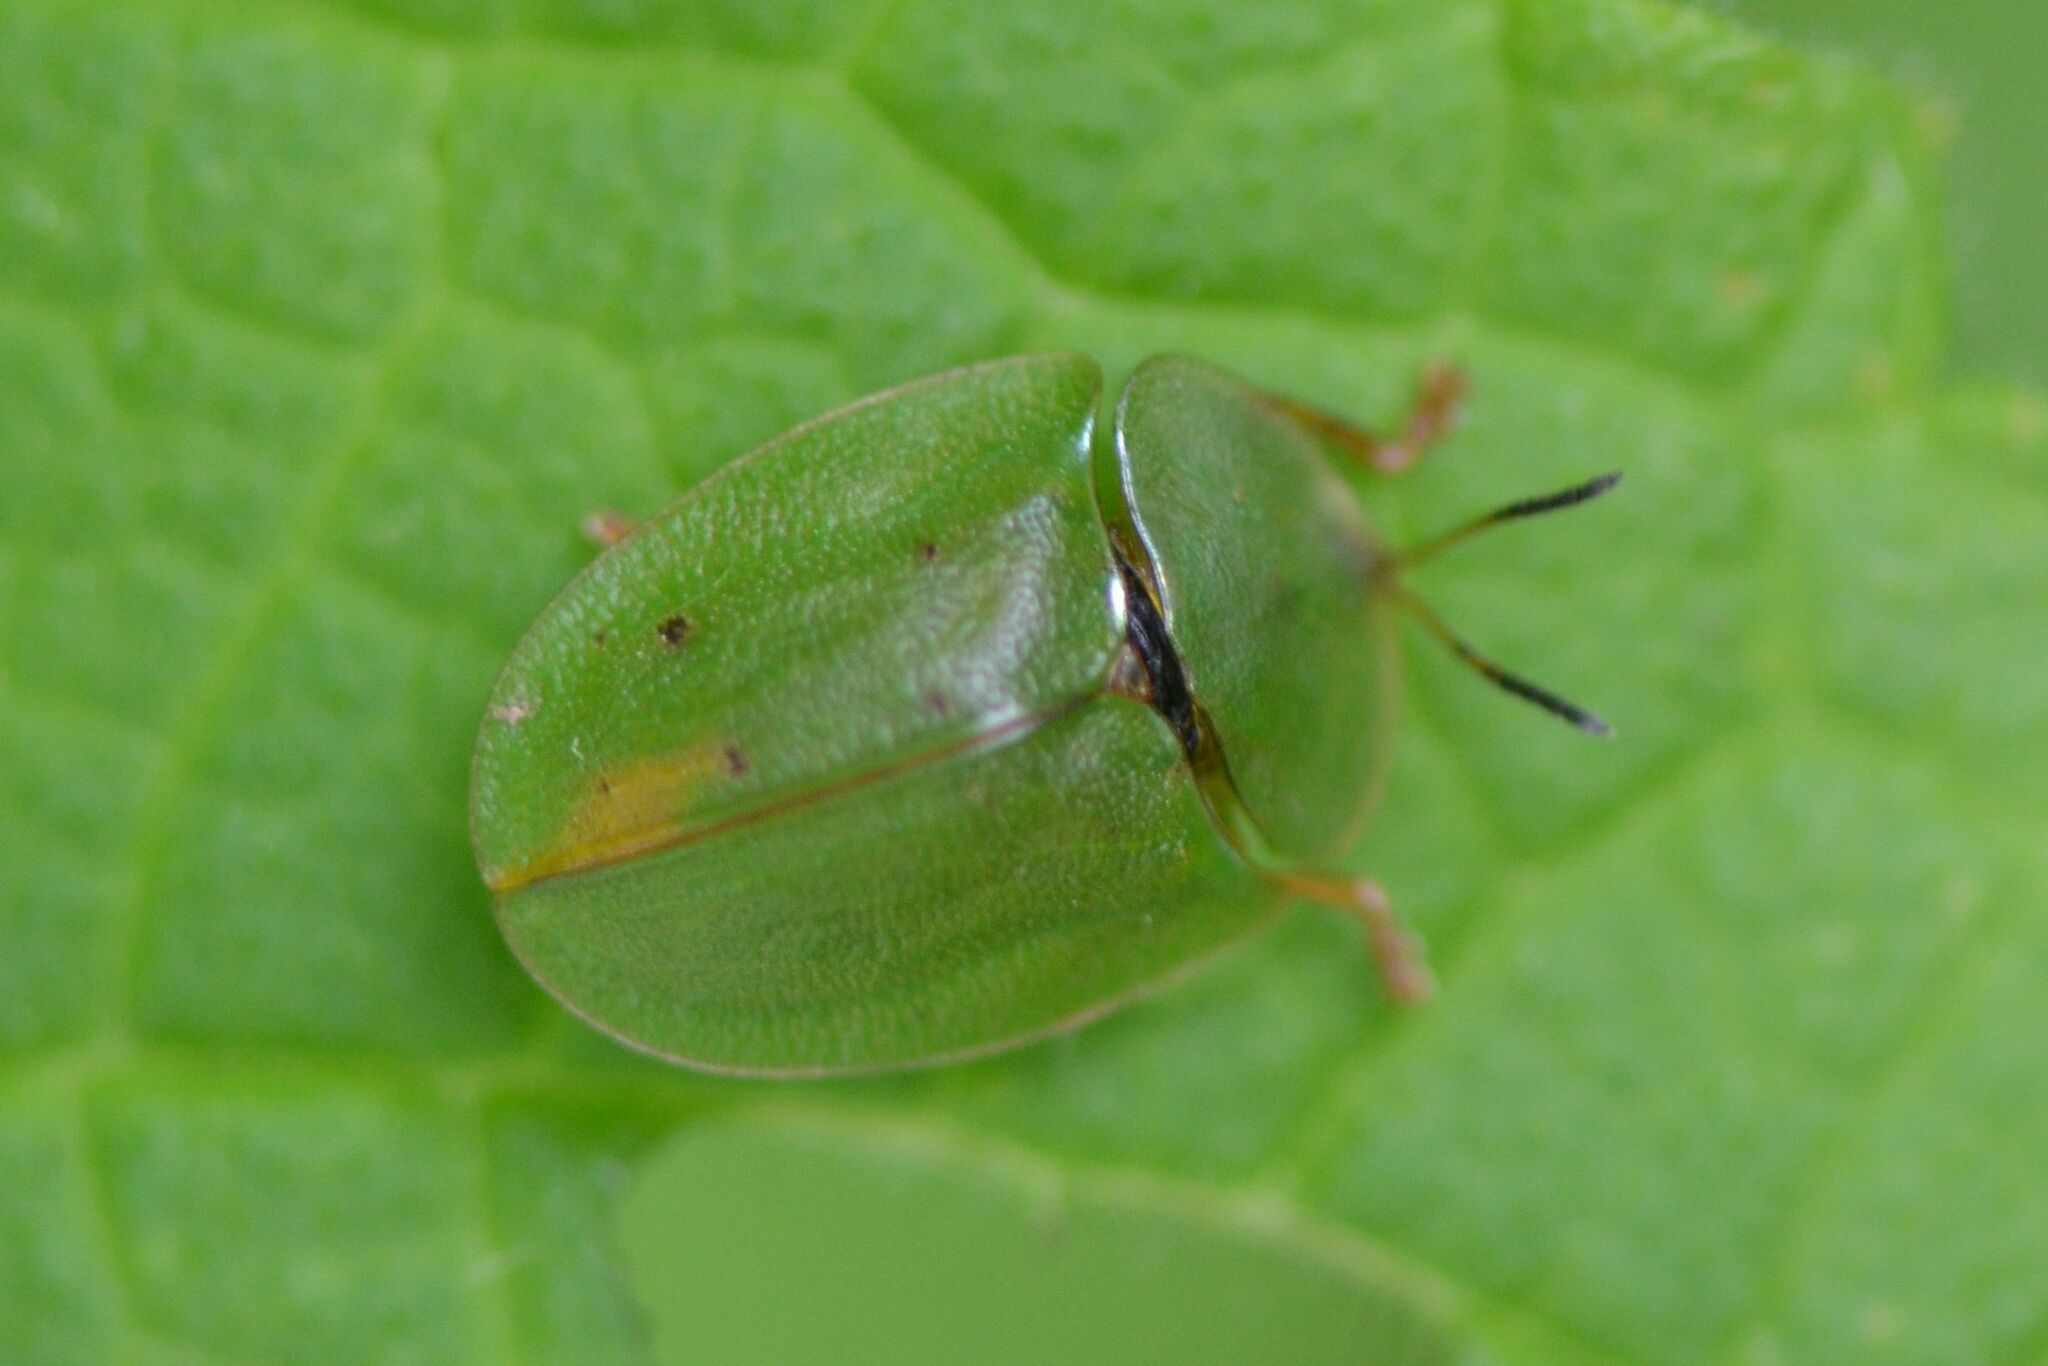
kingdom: Animalia
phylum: Arthropoda
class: Insecta
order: Coleoptera
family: Chrysomelidae
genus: Cassida
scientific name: Cassida viridis
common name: Green tortoise beetle
